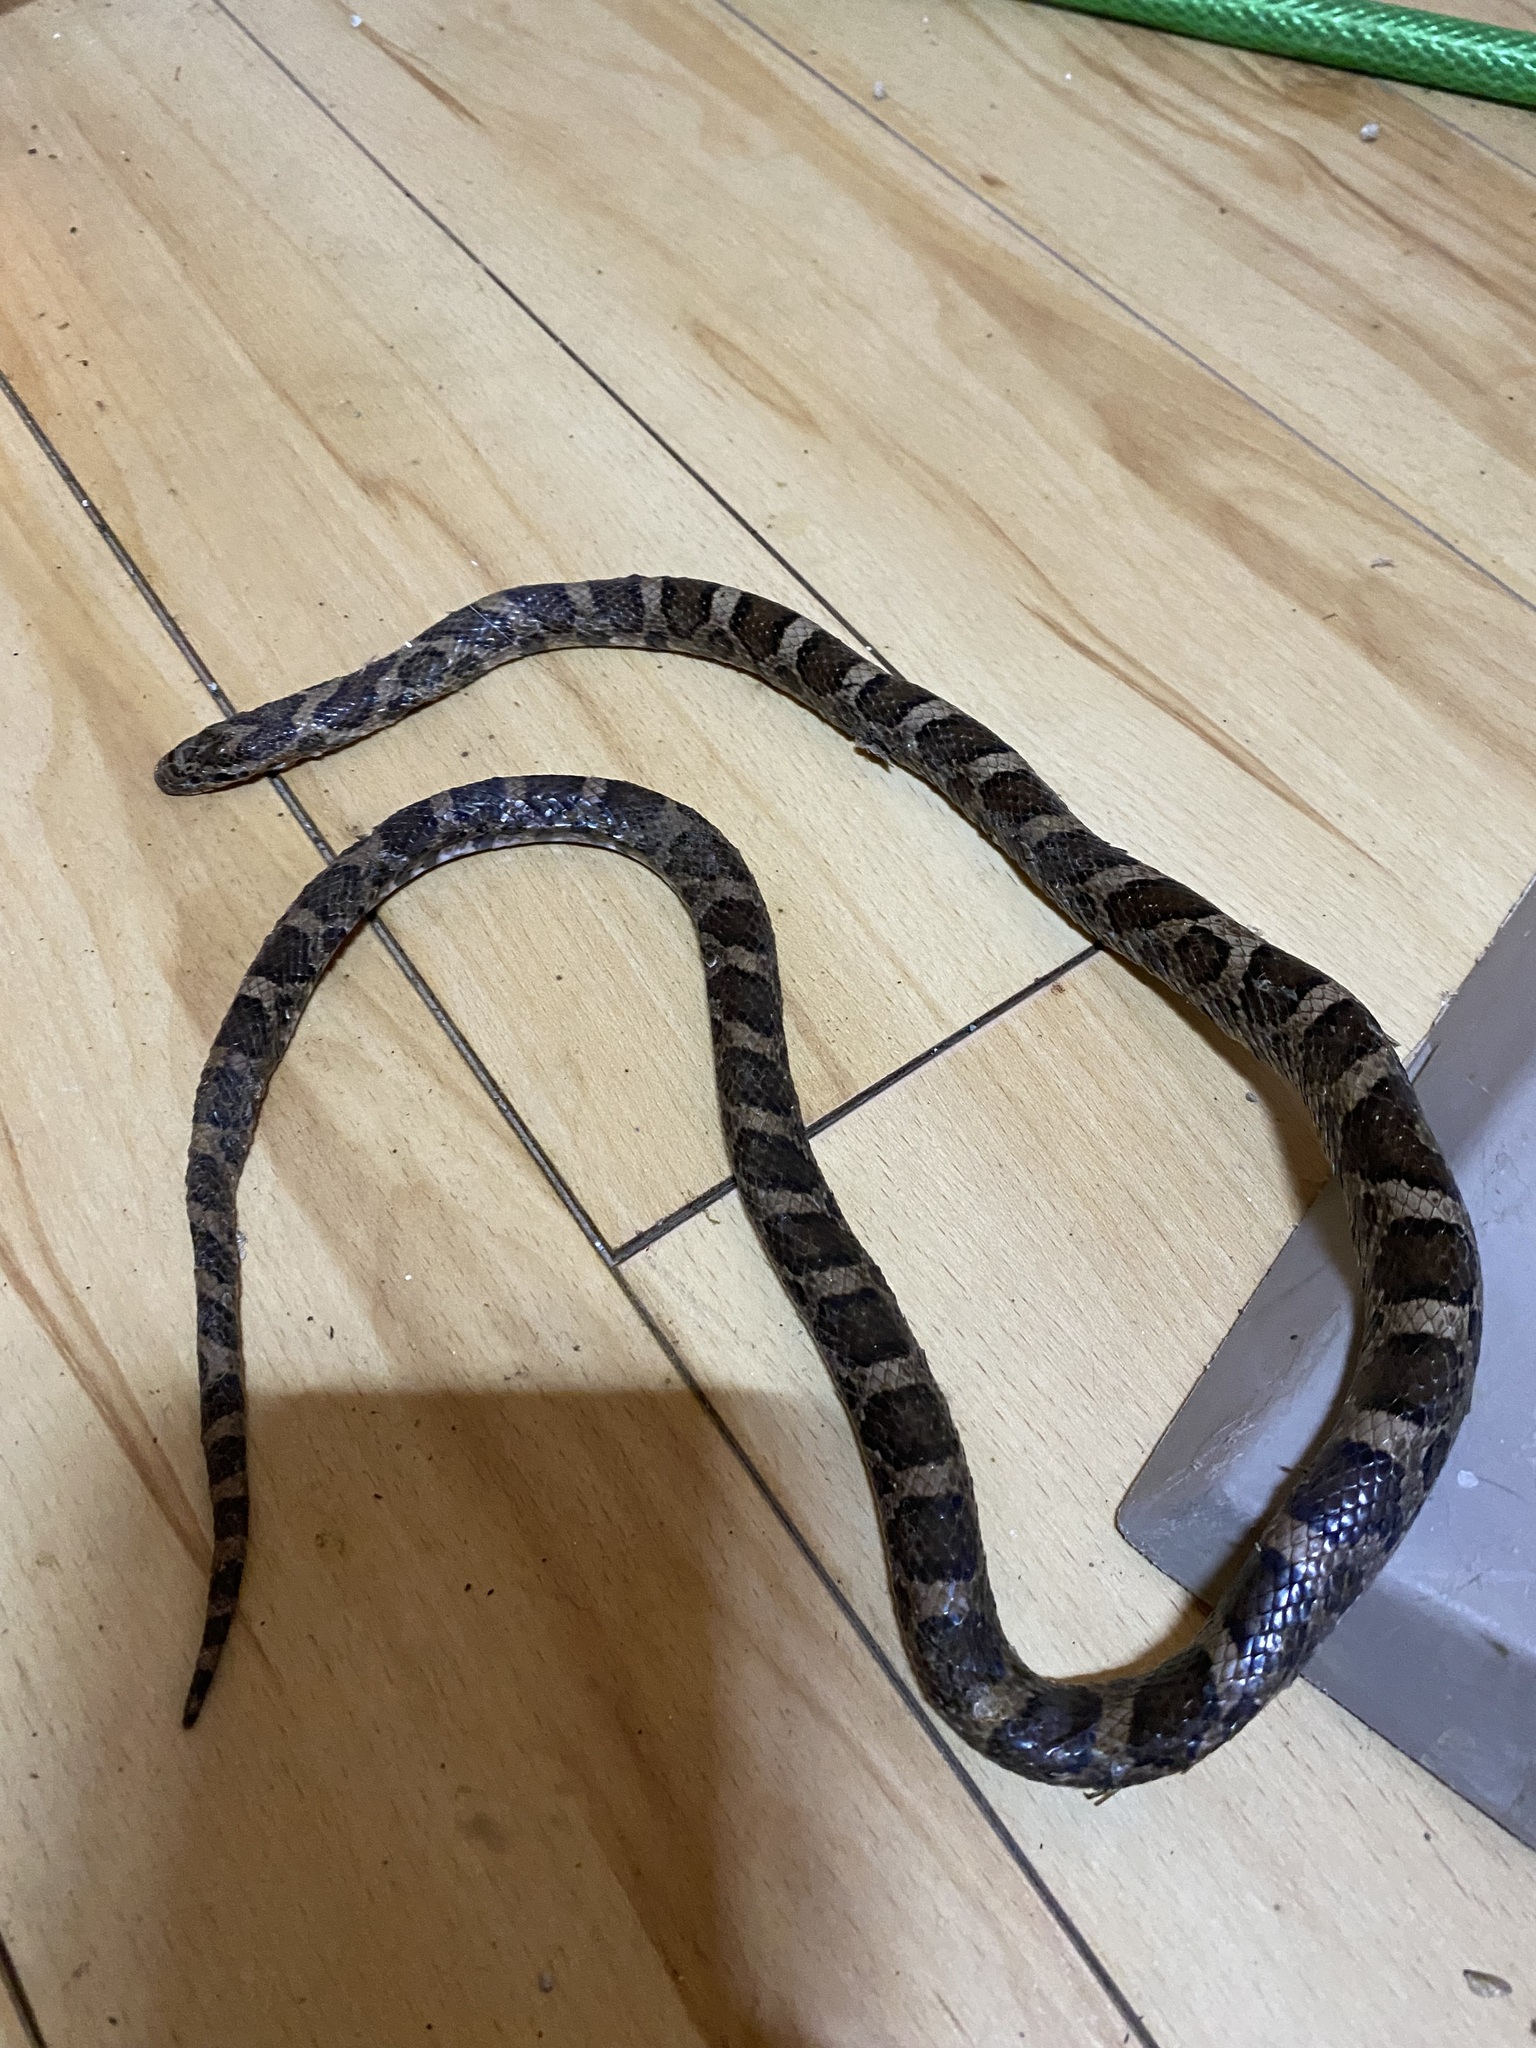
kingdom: Animalia
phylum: Chordata
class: Squamata
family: Colubridae
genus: Lampropeltis
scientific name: Lampropeltis triangulum
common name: Eastern milksnake
